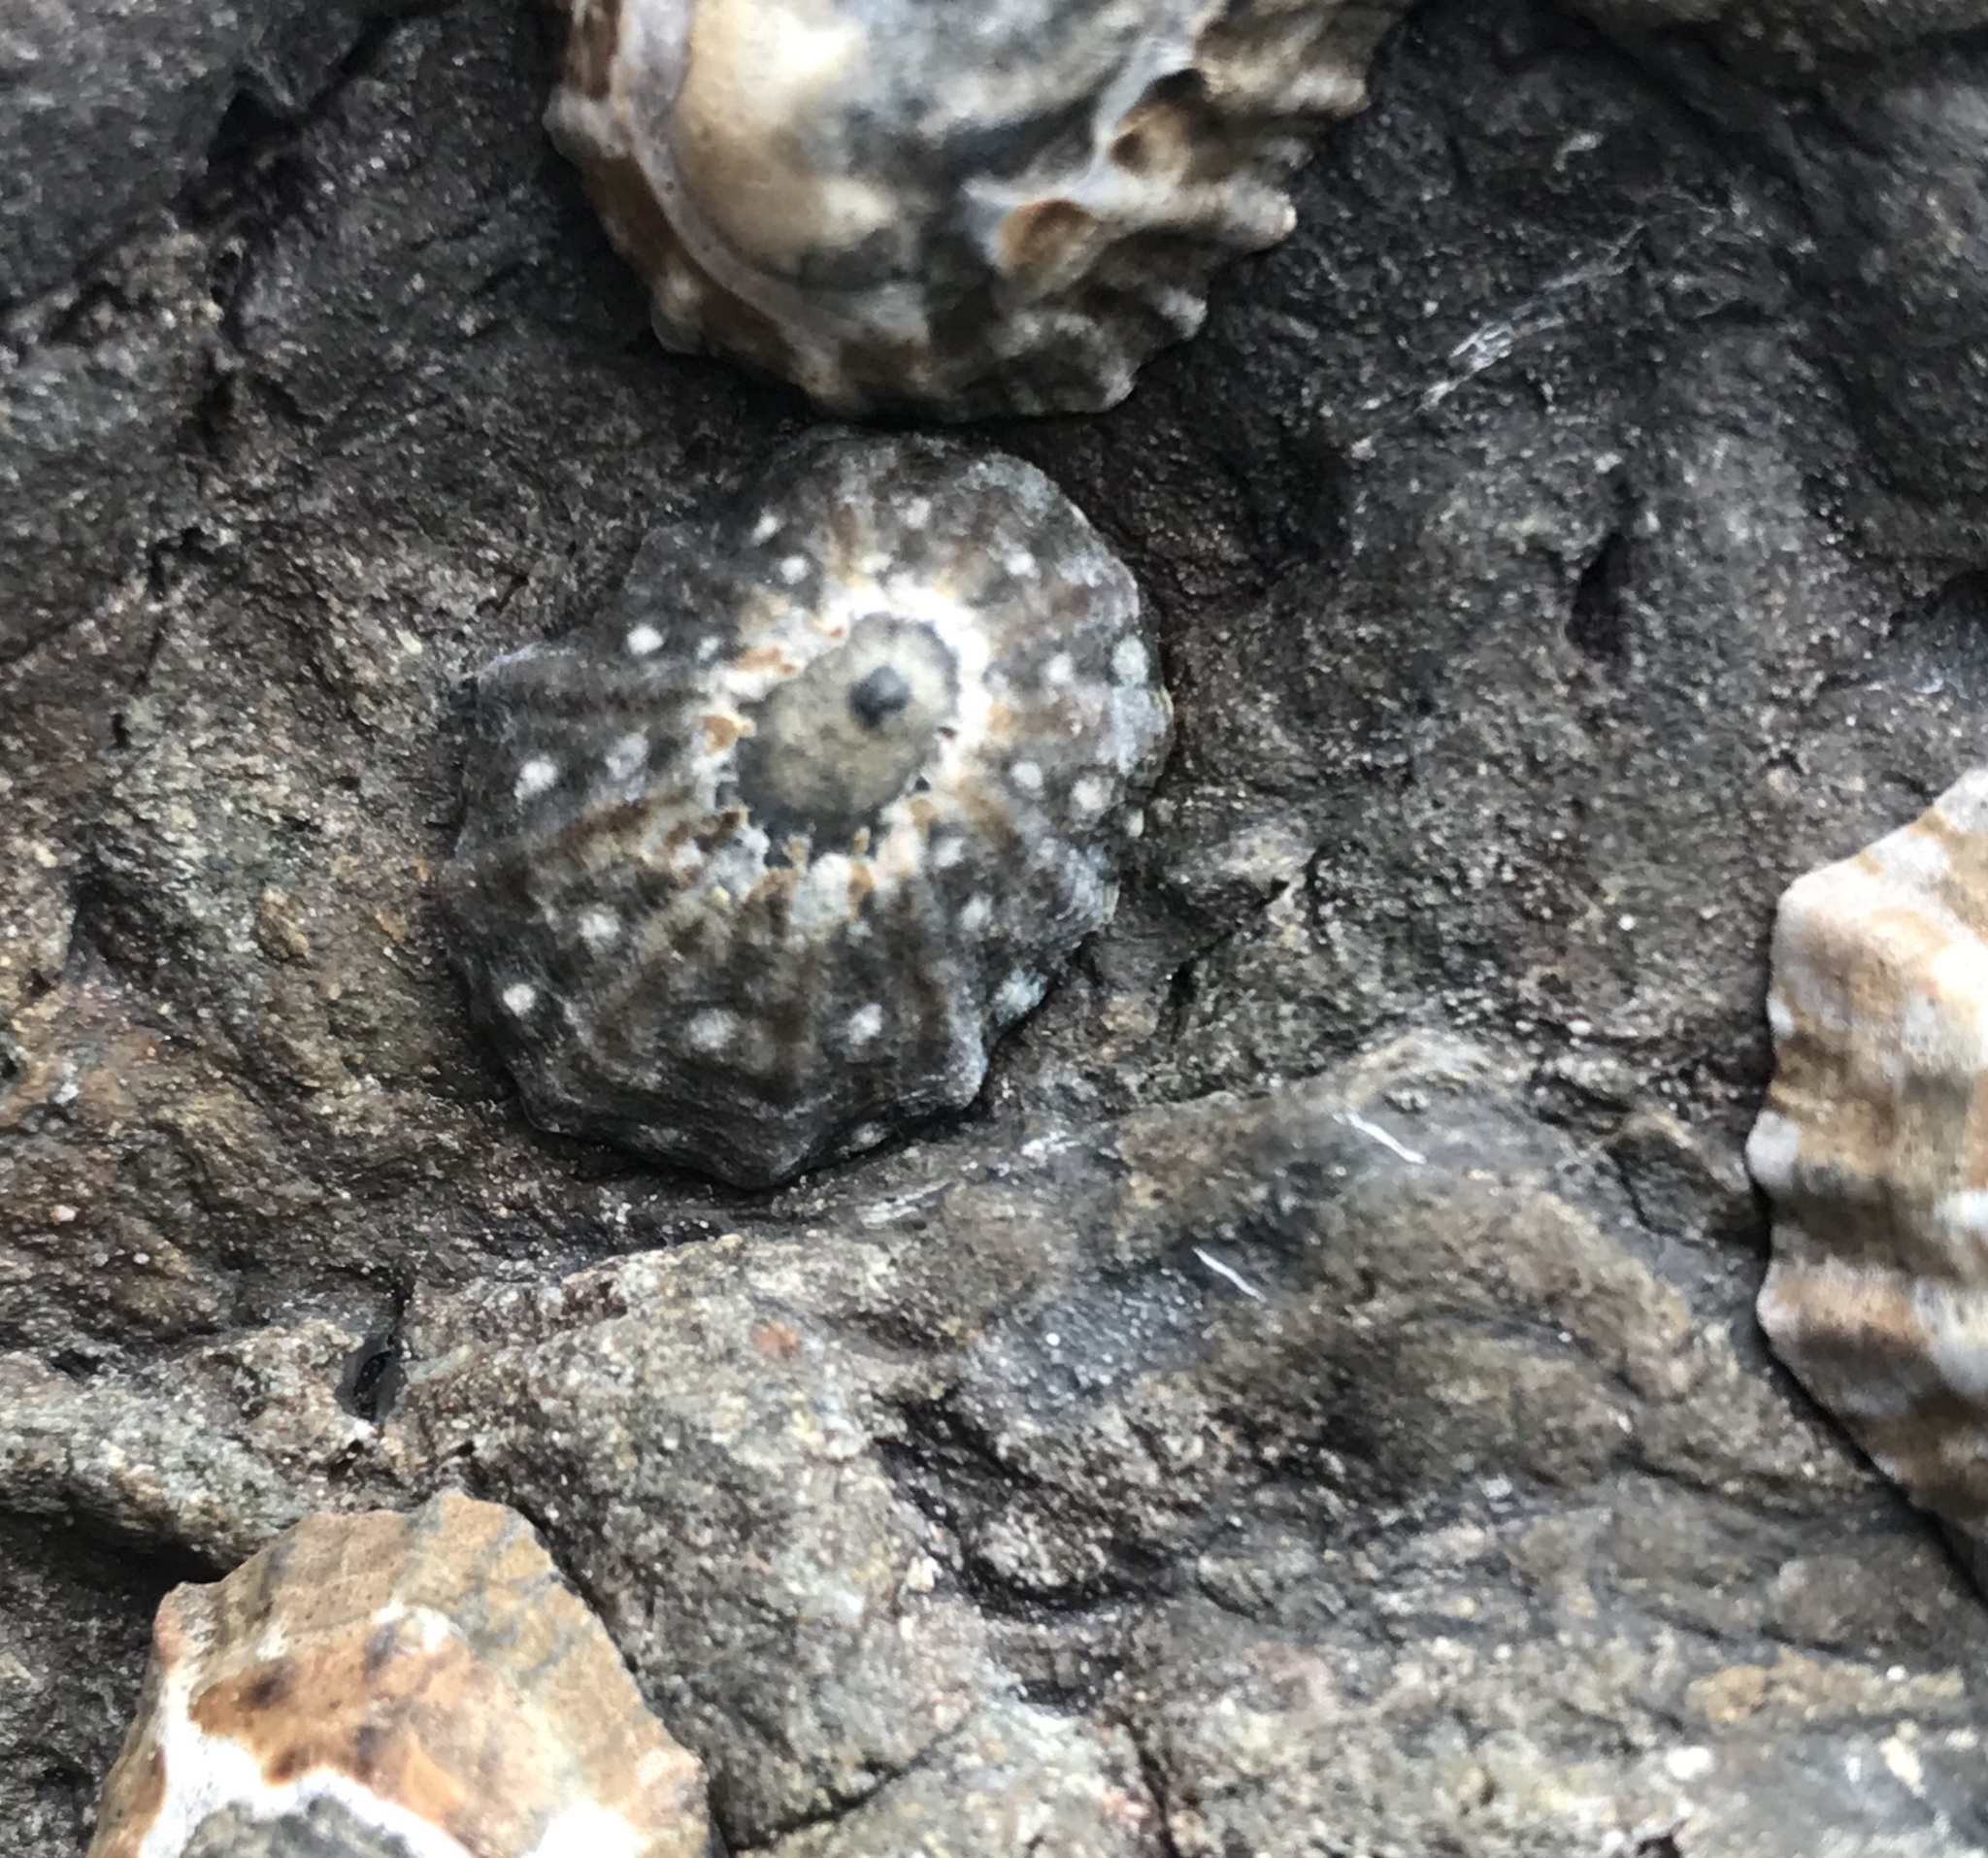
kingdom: Animalia
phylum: Mollusca
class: Gastropoda
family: Nacellidae
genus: Cellana
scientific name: Cellana ornata
